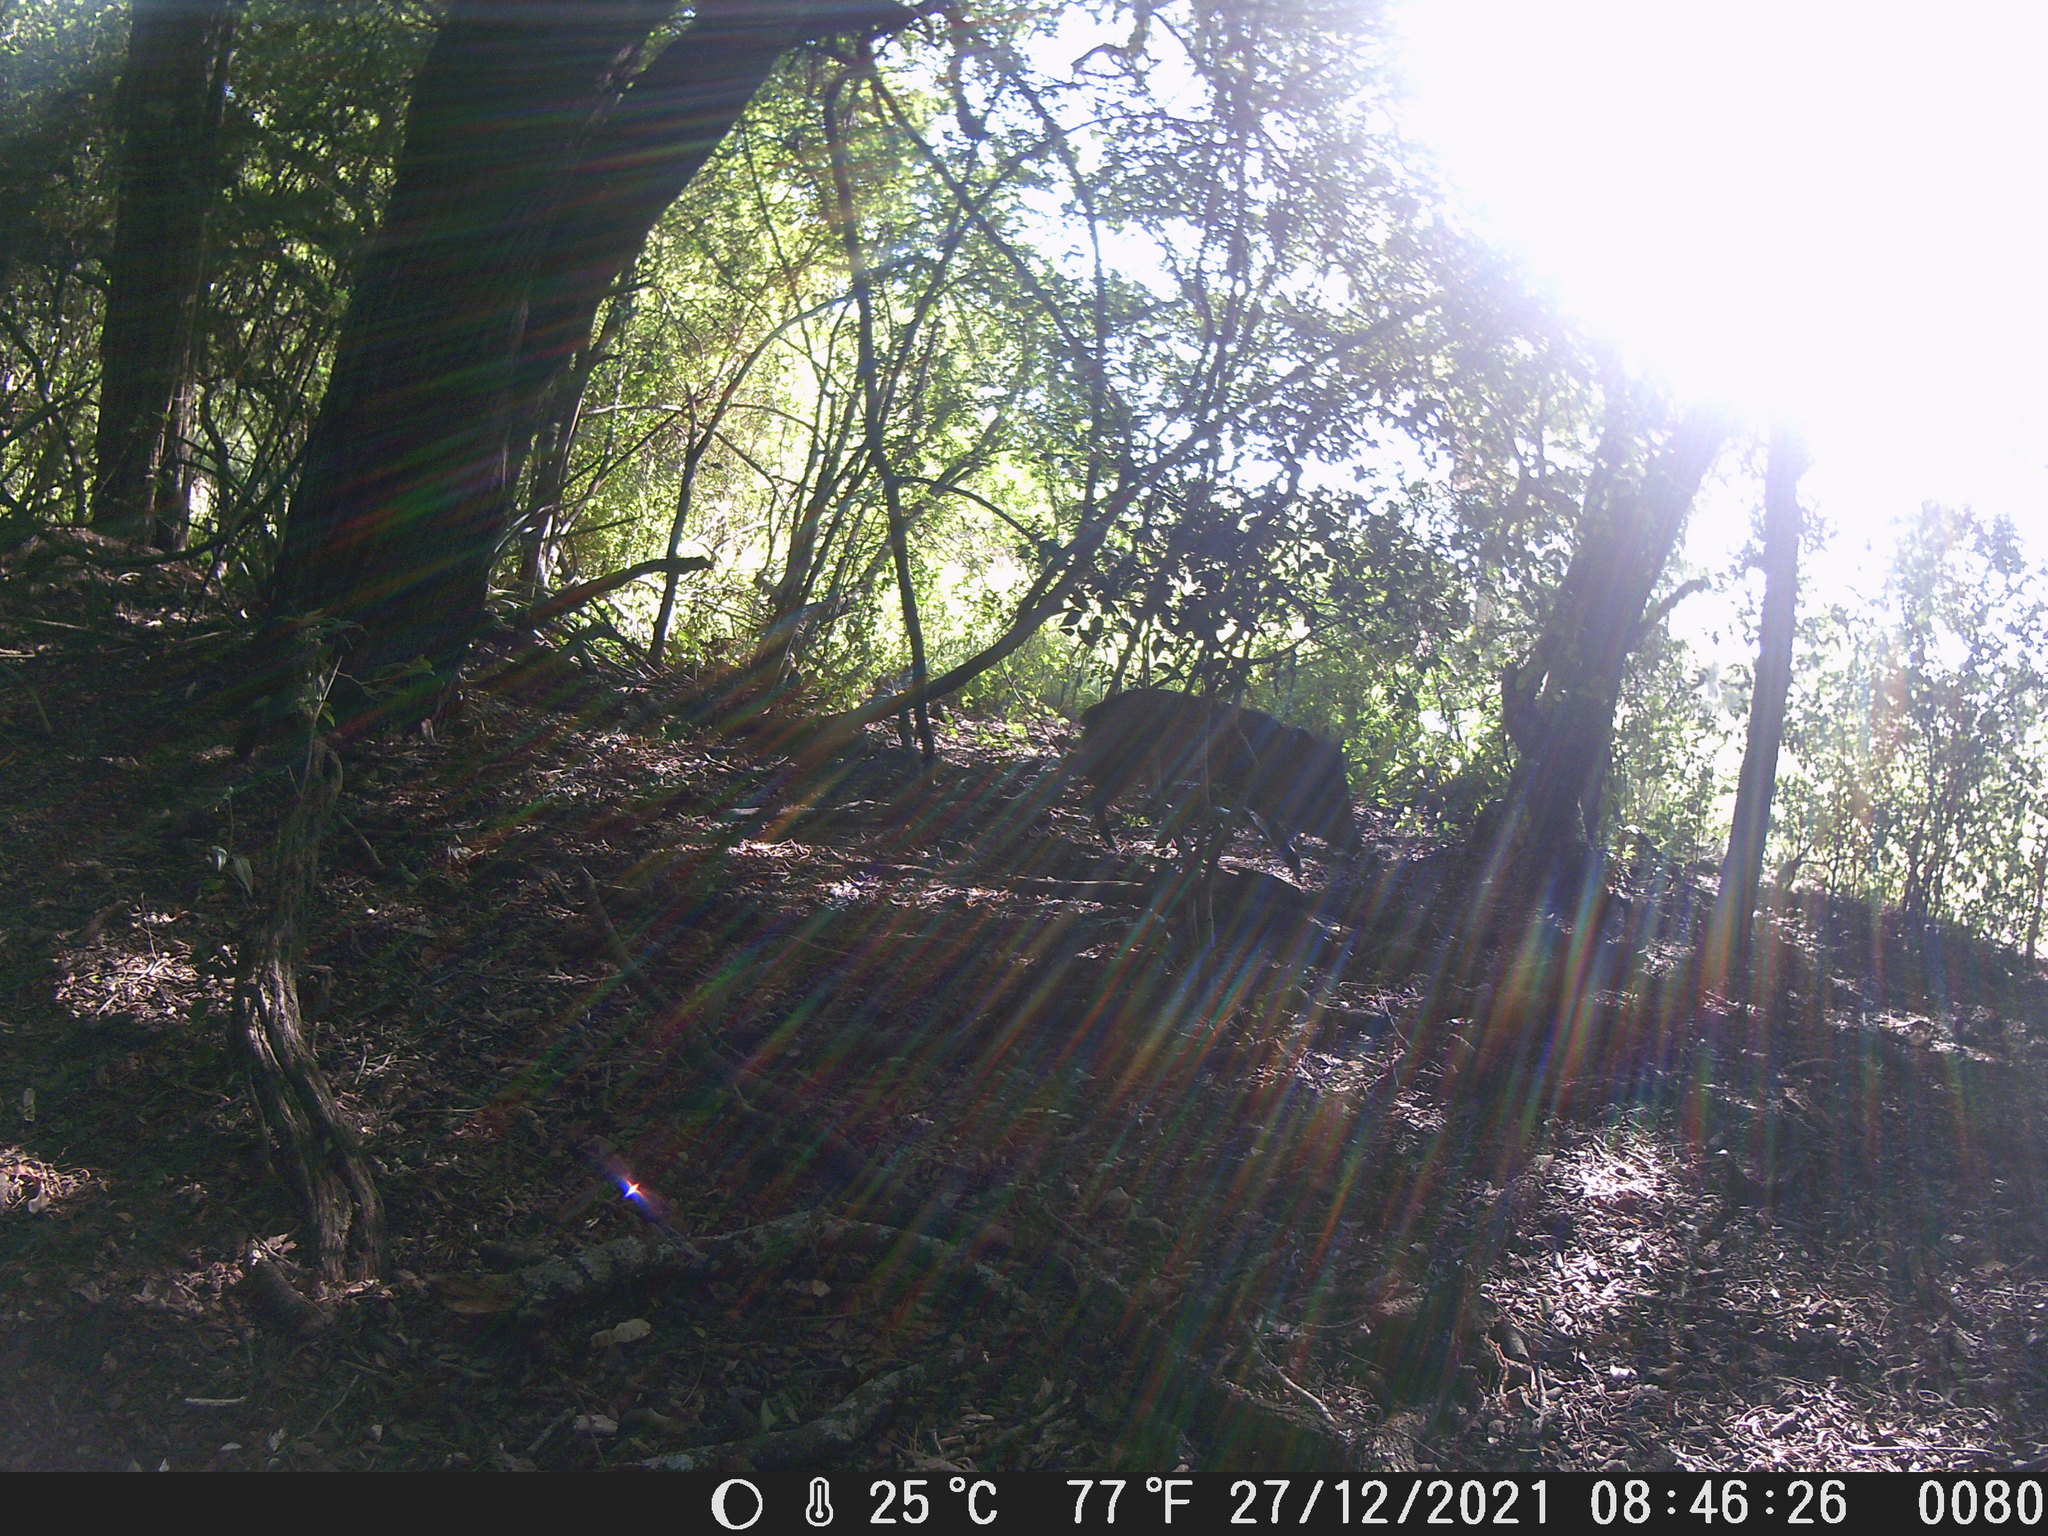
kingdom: Animalia
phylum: Chordata
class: Mammalia
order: Artiodactyla
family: Tayassuidae
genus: Pecari
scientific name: Pecari tajacu
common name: Collared peccary
